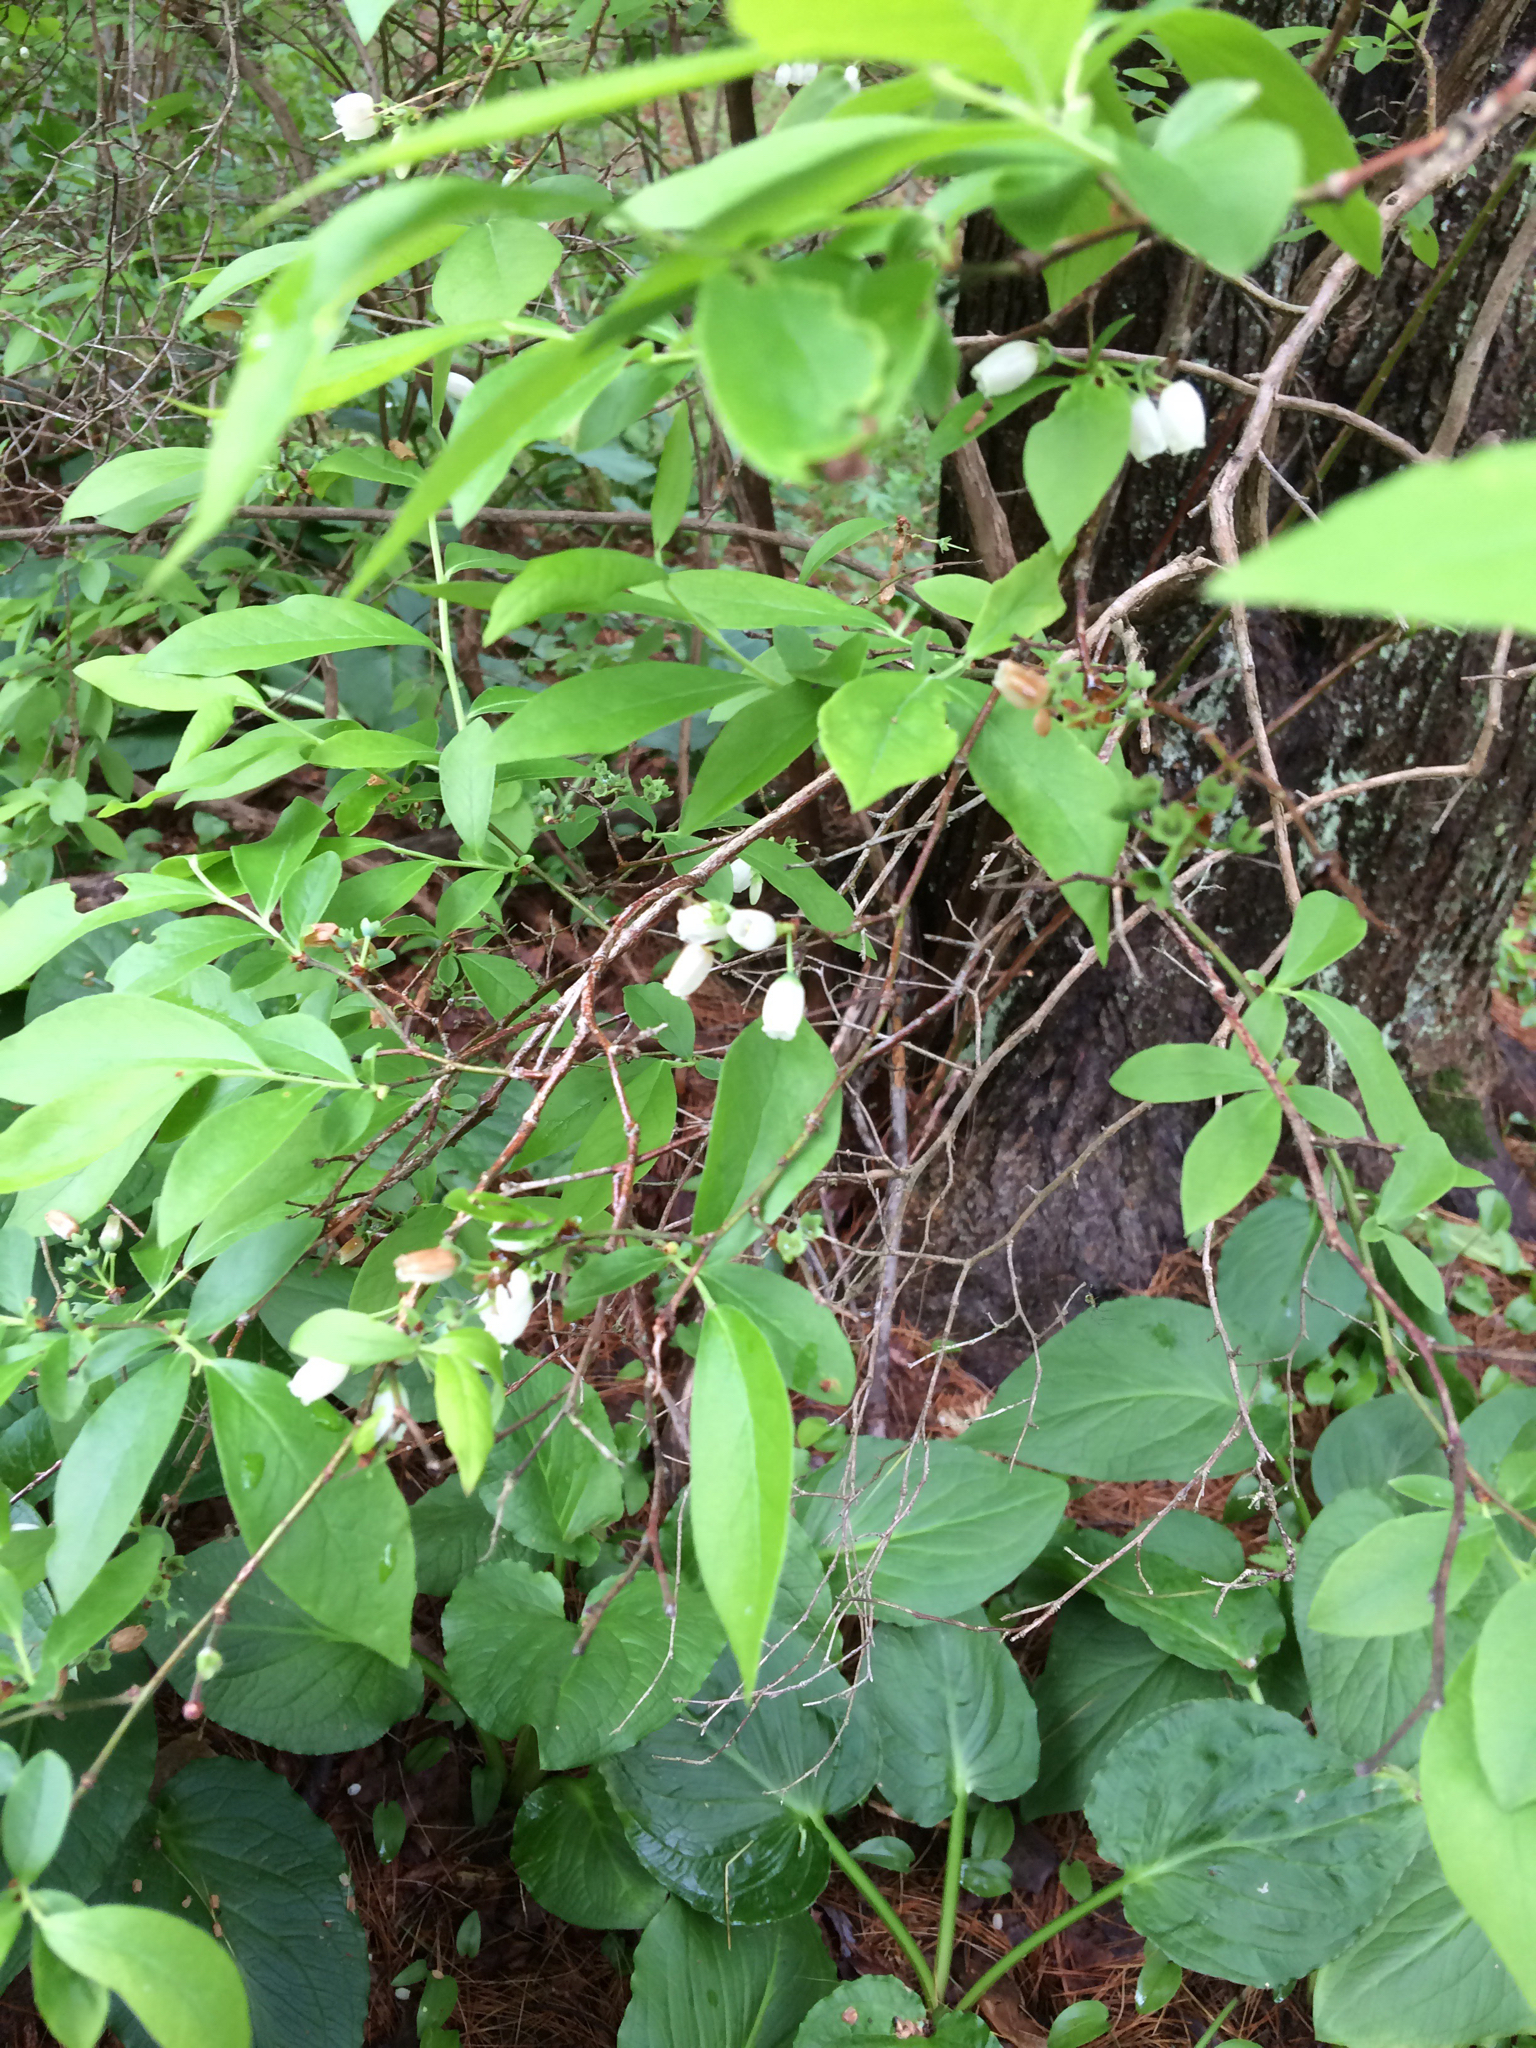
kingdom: Plantae
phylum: Tracheophyta
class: Magnoliopsida
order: Ericales
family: Ericaceae
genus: Vaccinium
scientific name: Vaccinium corymbosum
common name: Blueberry
